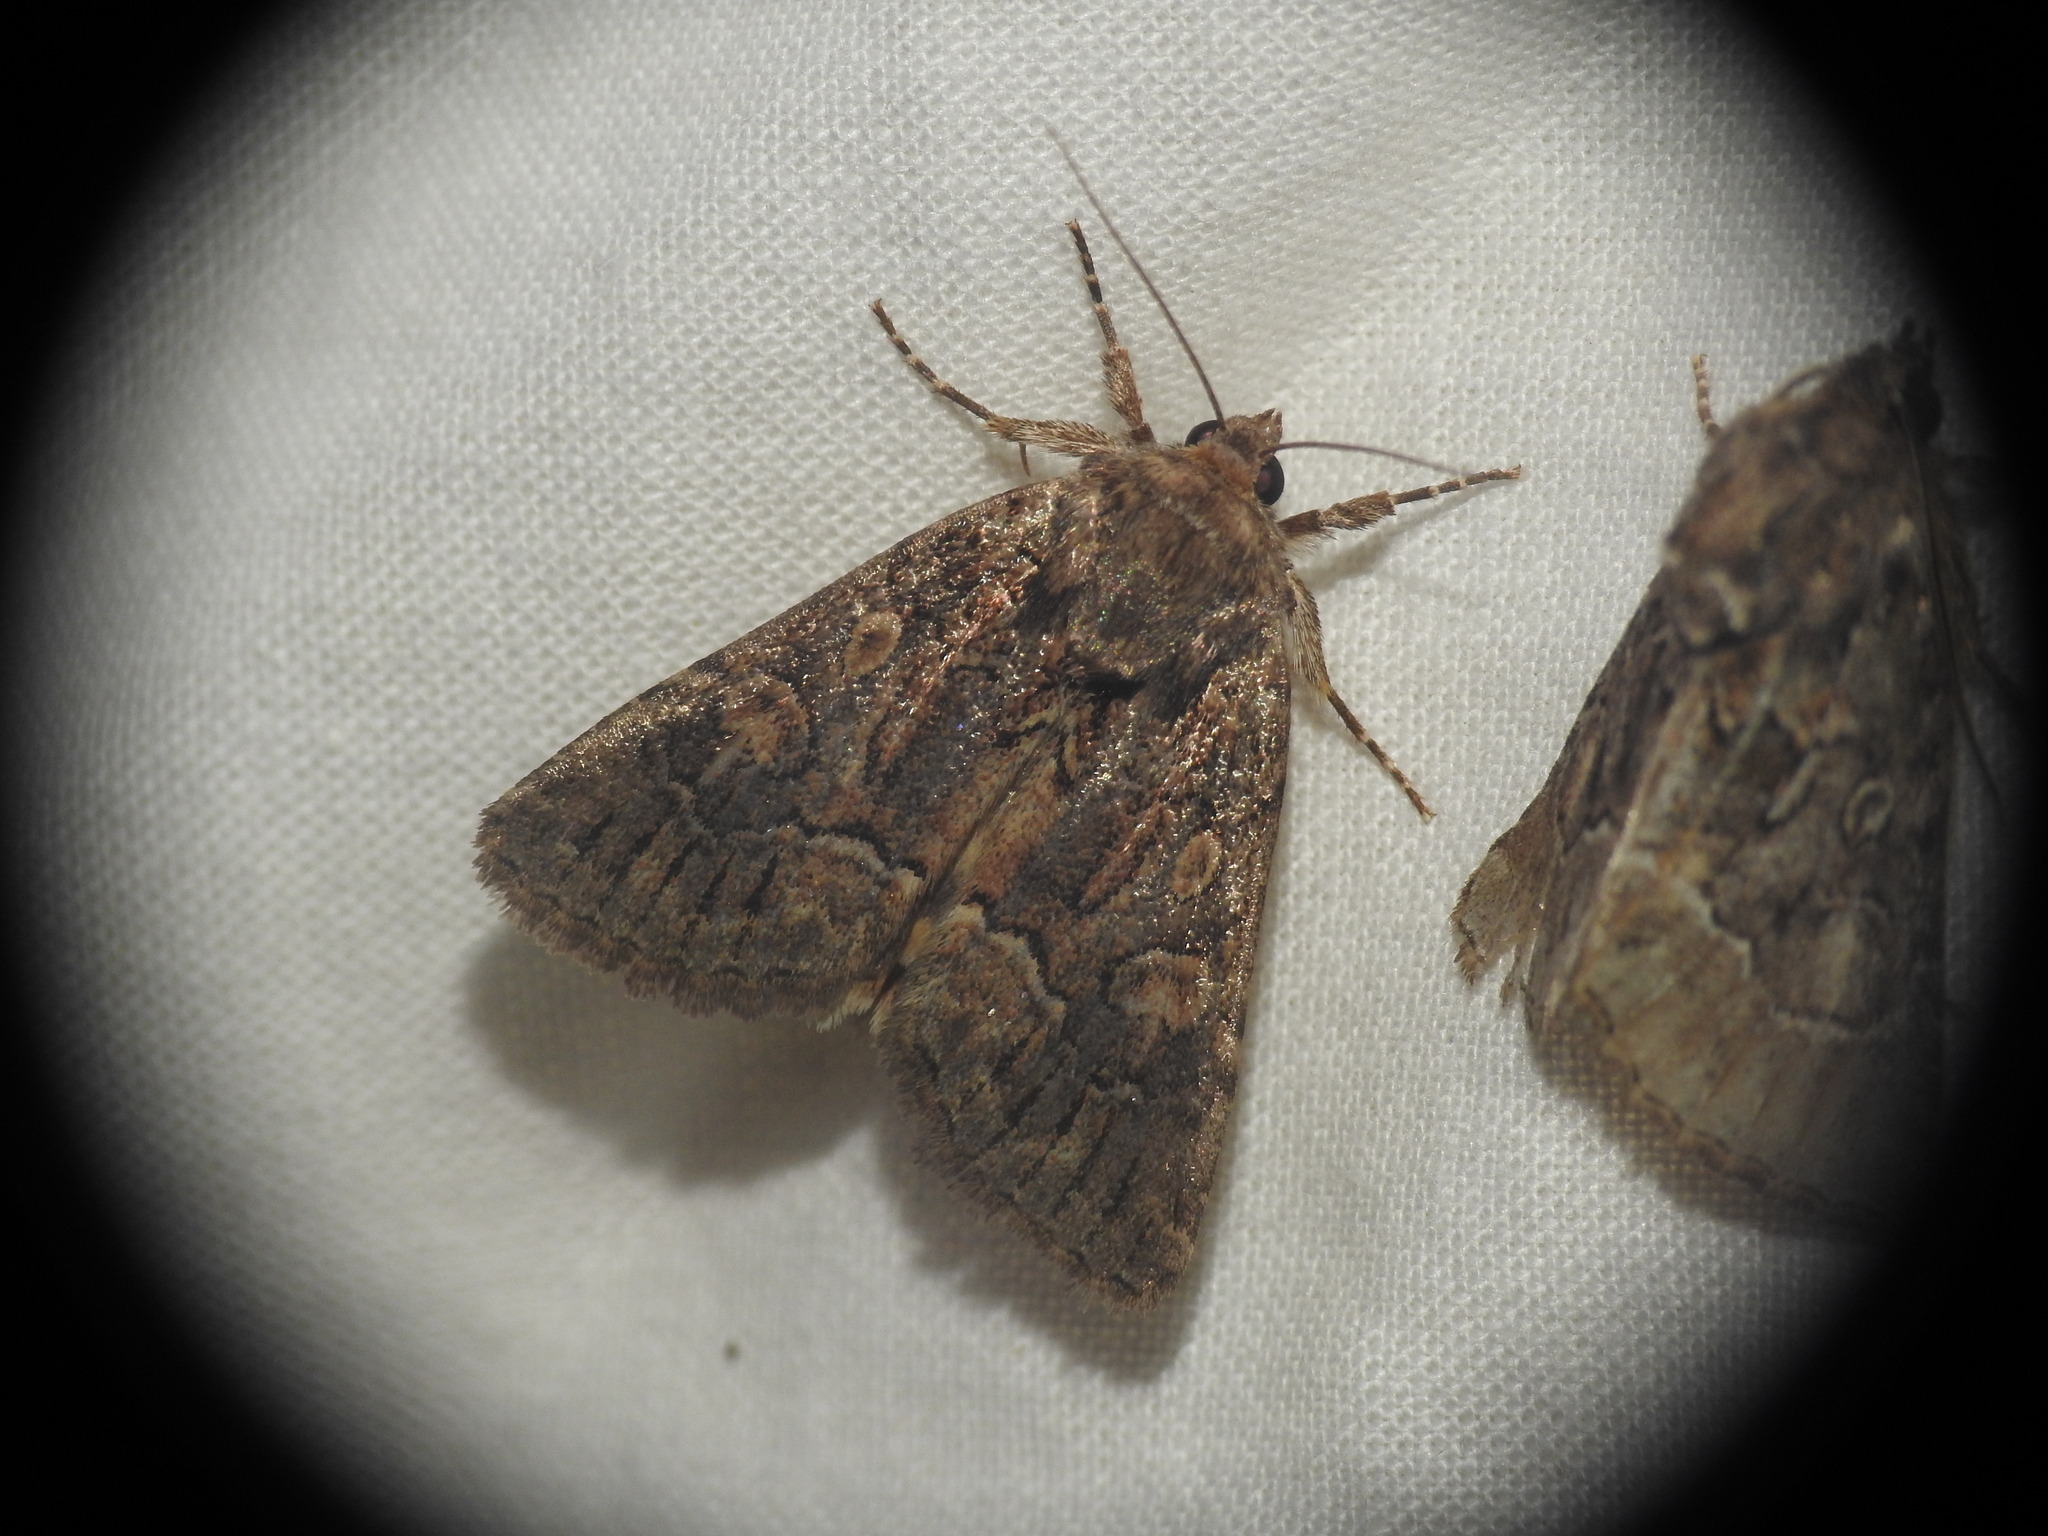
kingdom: Animalia
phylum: Arthropoda
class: Insecta
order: Lepidoptera
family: Noctuidae
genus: Thalpophila
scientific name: Thalpophila matura
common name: Straw underwing
